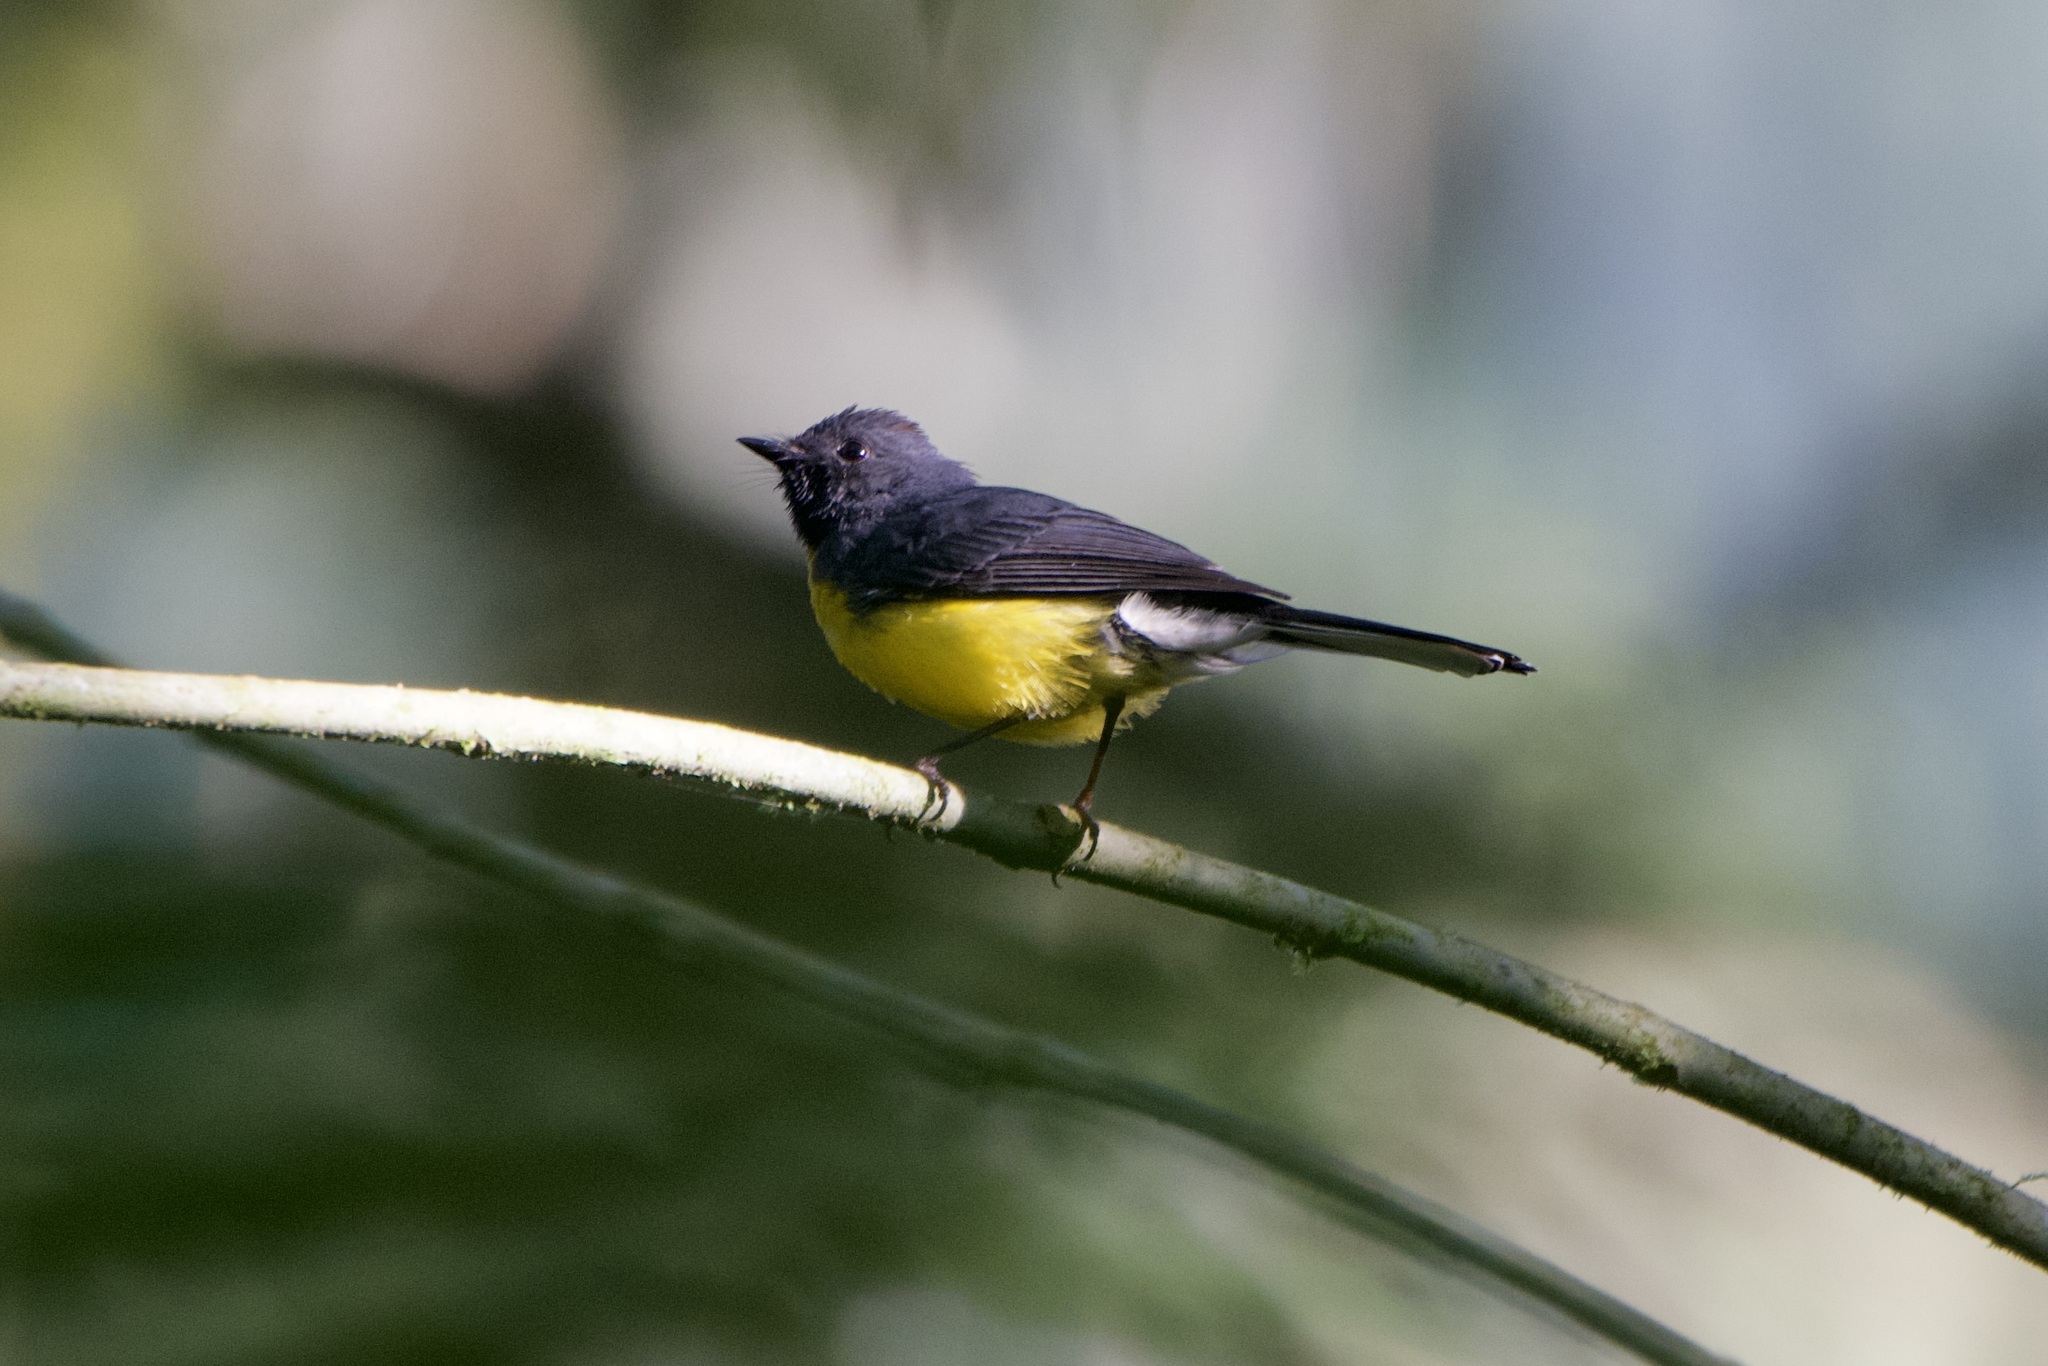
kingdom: Animalia
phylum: Chordata
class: Aves
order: Passeriformes
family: Parulidae
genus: Myioborus
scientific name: Myioborus miniatus
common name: Slate-throated redstart
